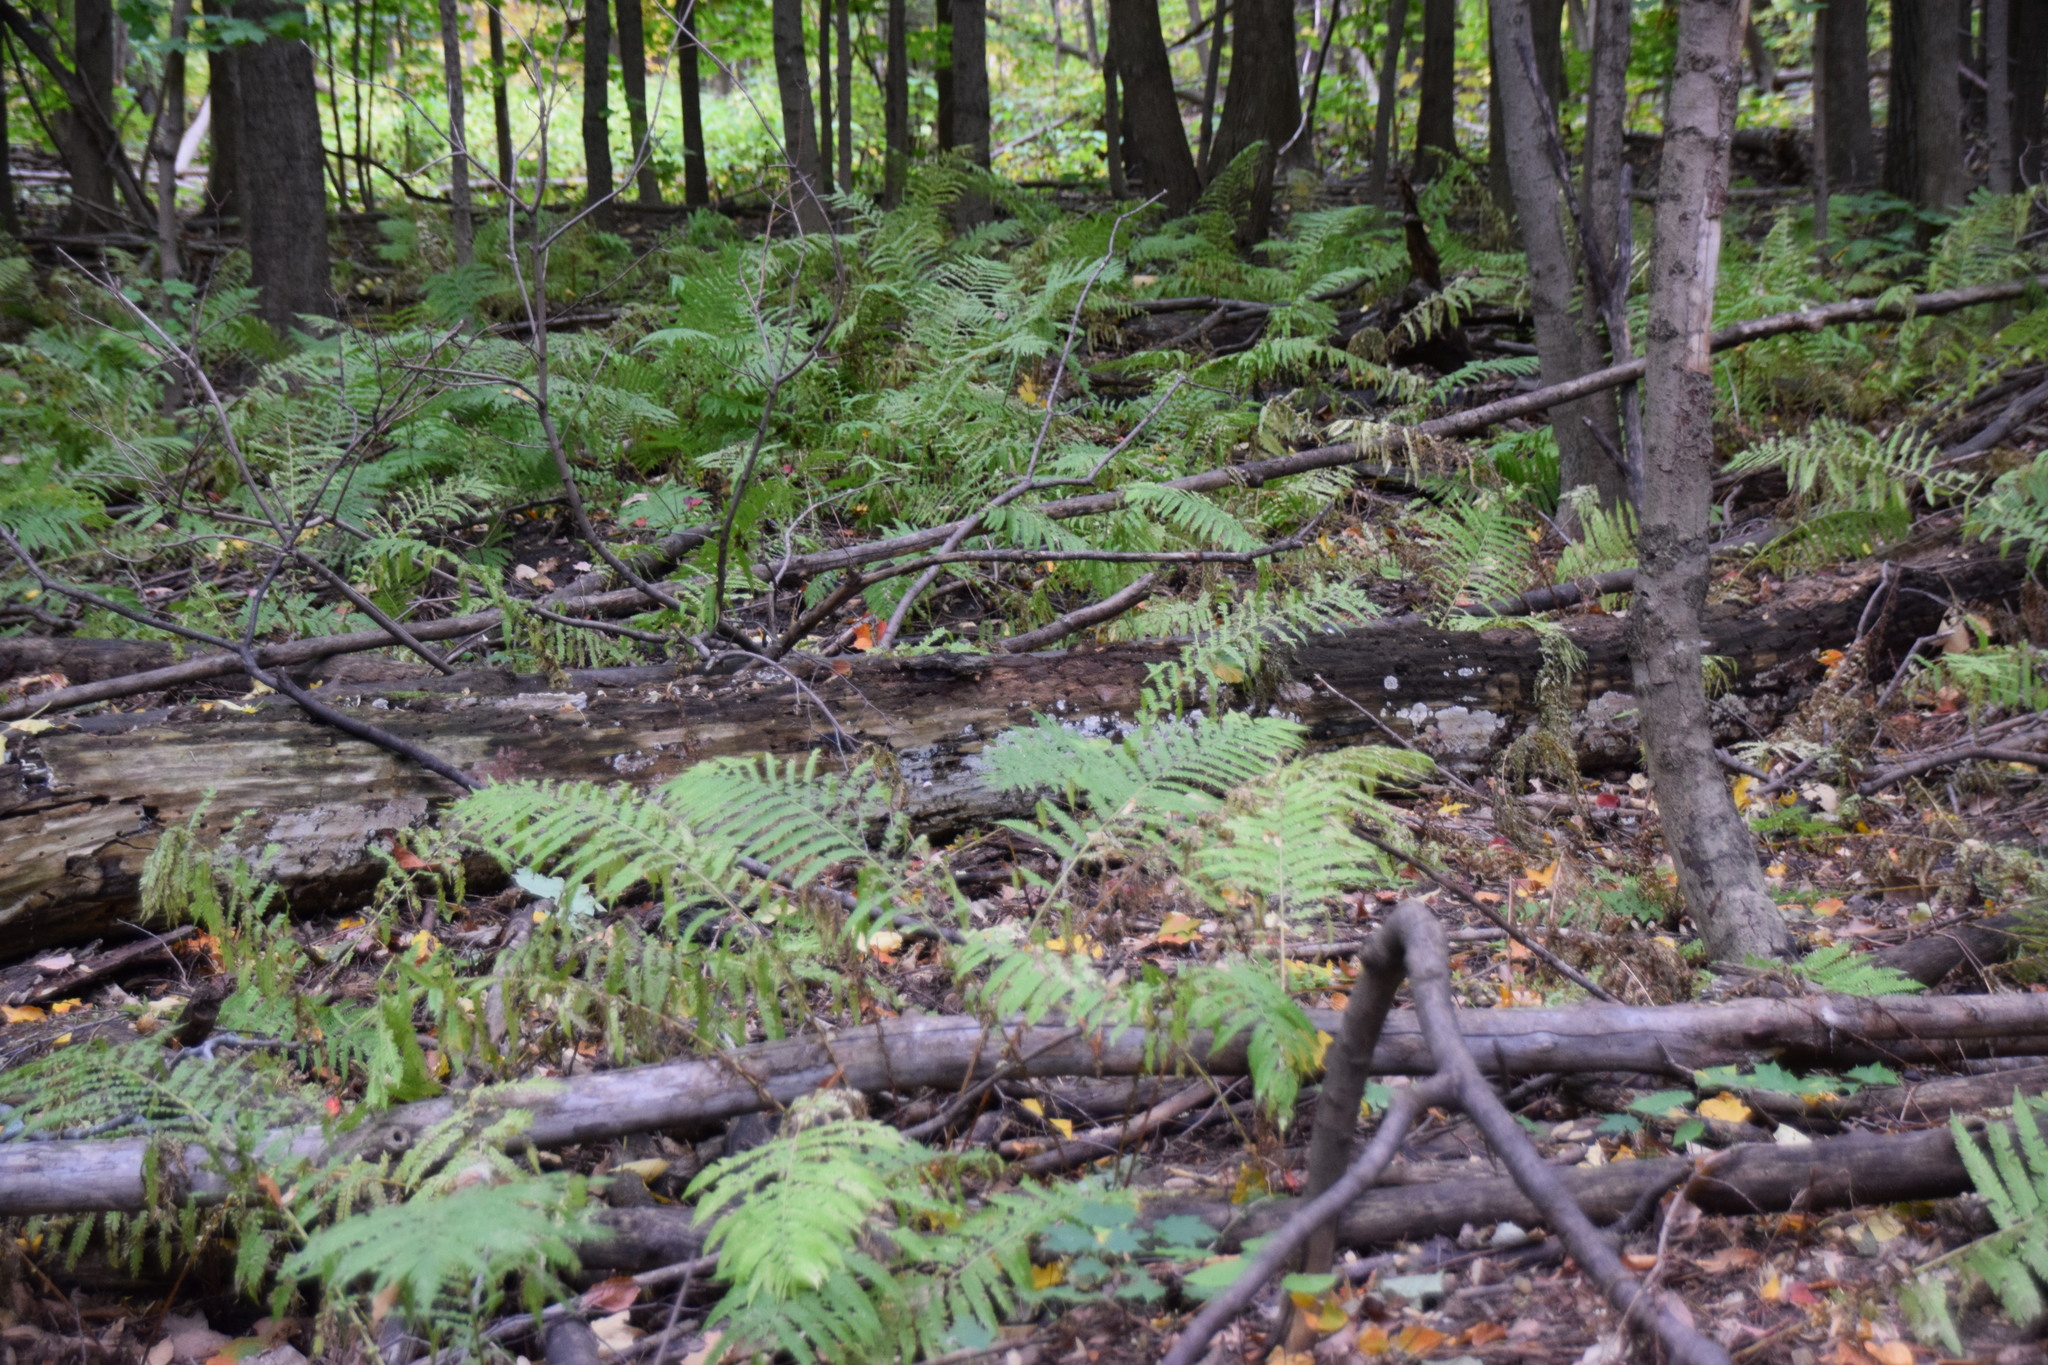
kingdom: Plantae
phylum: Tracheophyta
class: Polypodiopsida
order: Polypodiales
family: Onocleaceae
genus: Matteuccia
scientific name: Matteuccia struthiopteris
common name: Ostrich fern
